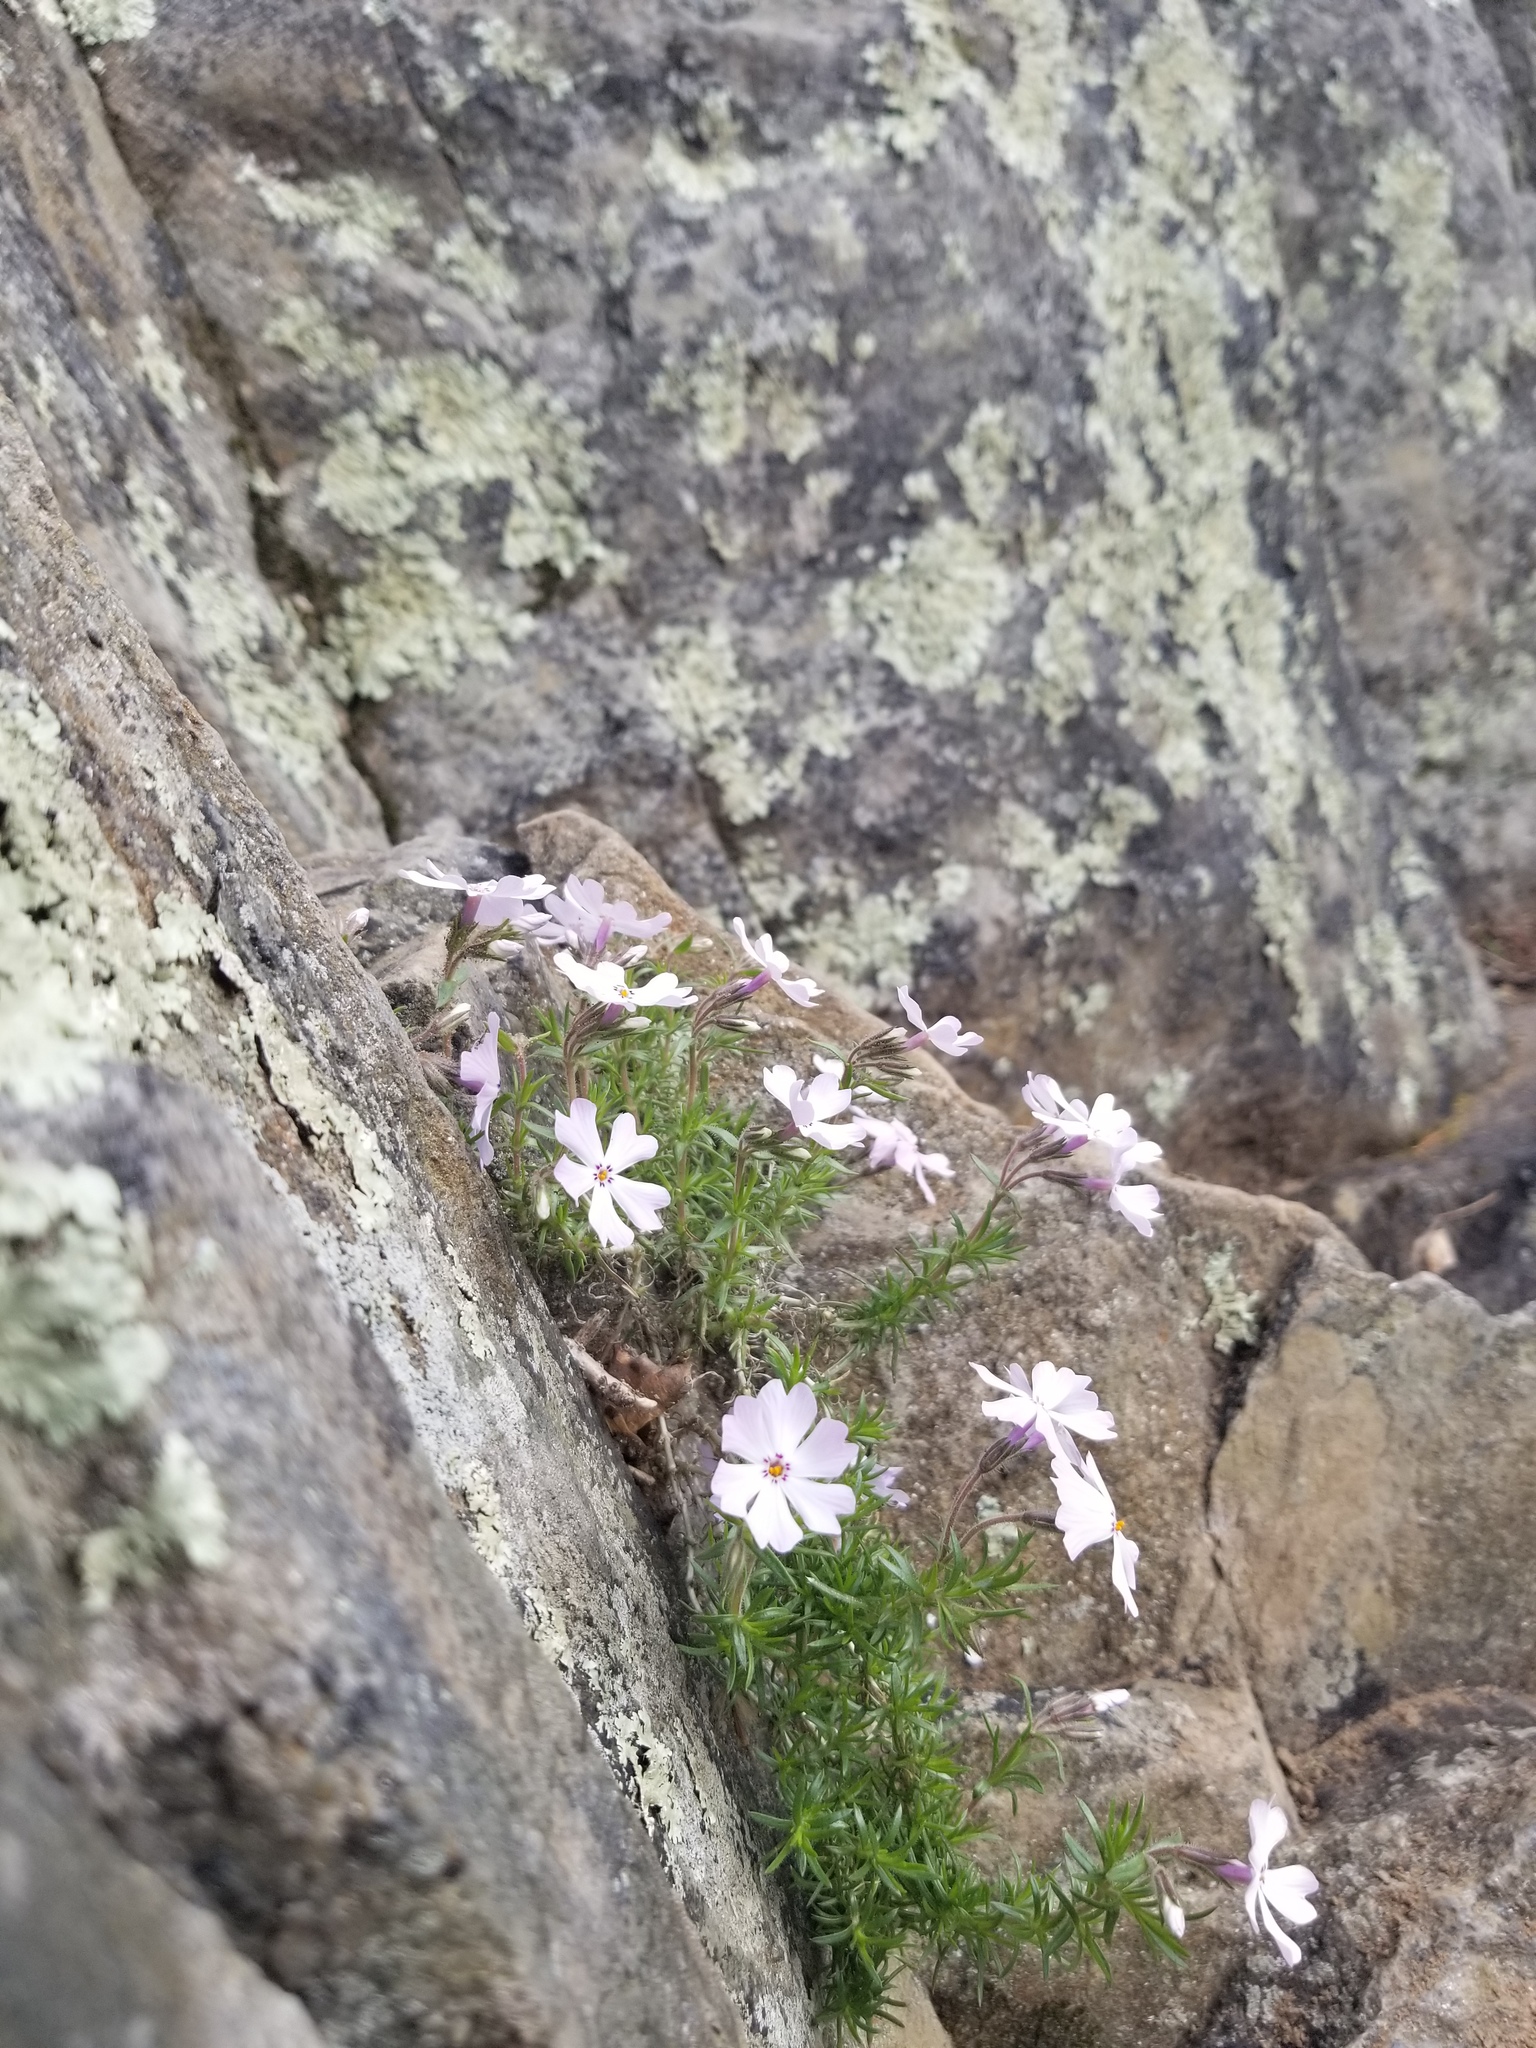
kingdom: Plantae
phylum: Tracheophyta
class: Magnoliopsida
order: Ericales
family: Polemoniaceae
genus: Phlox
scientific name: Phlox subulata
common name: Moss phlox
